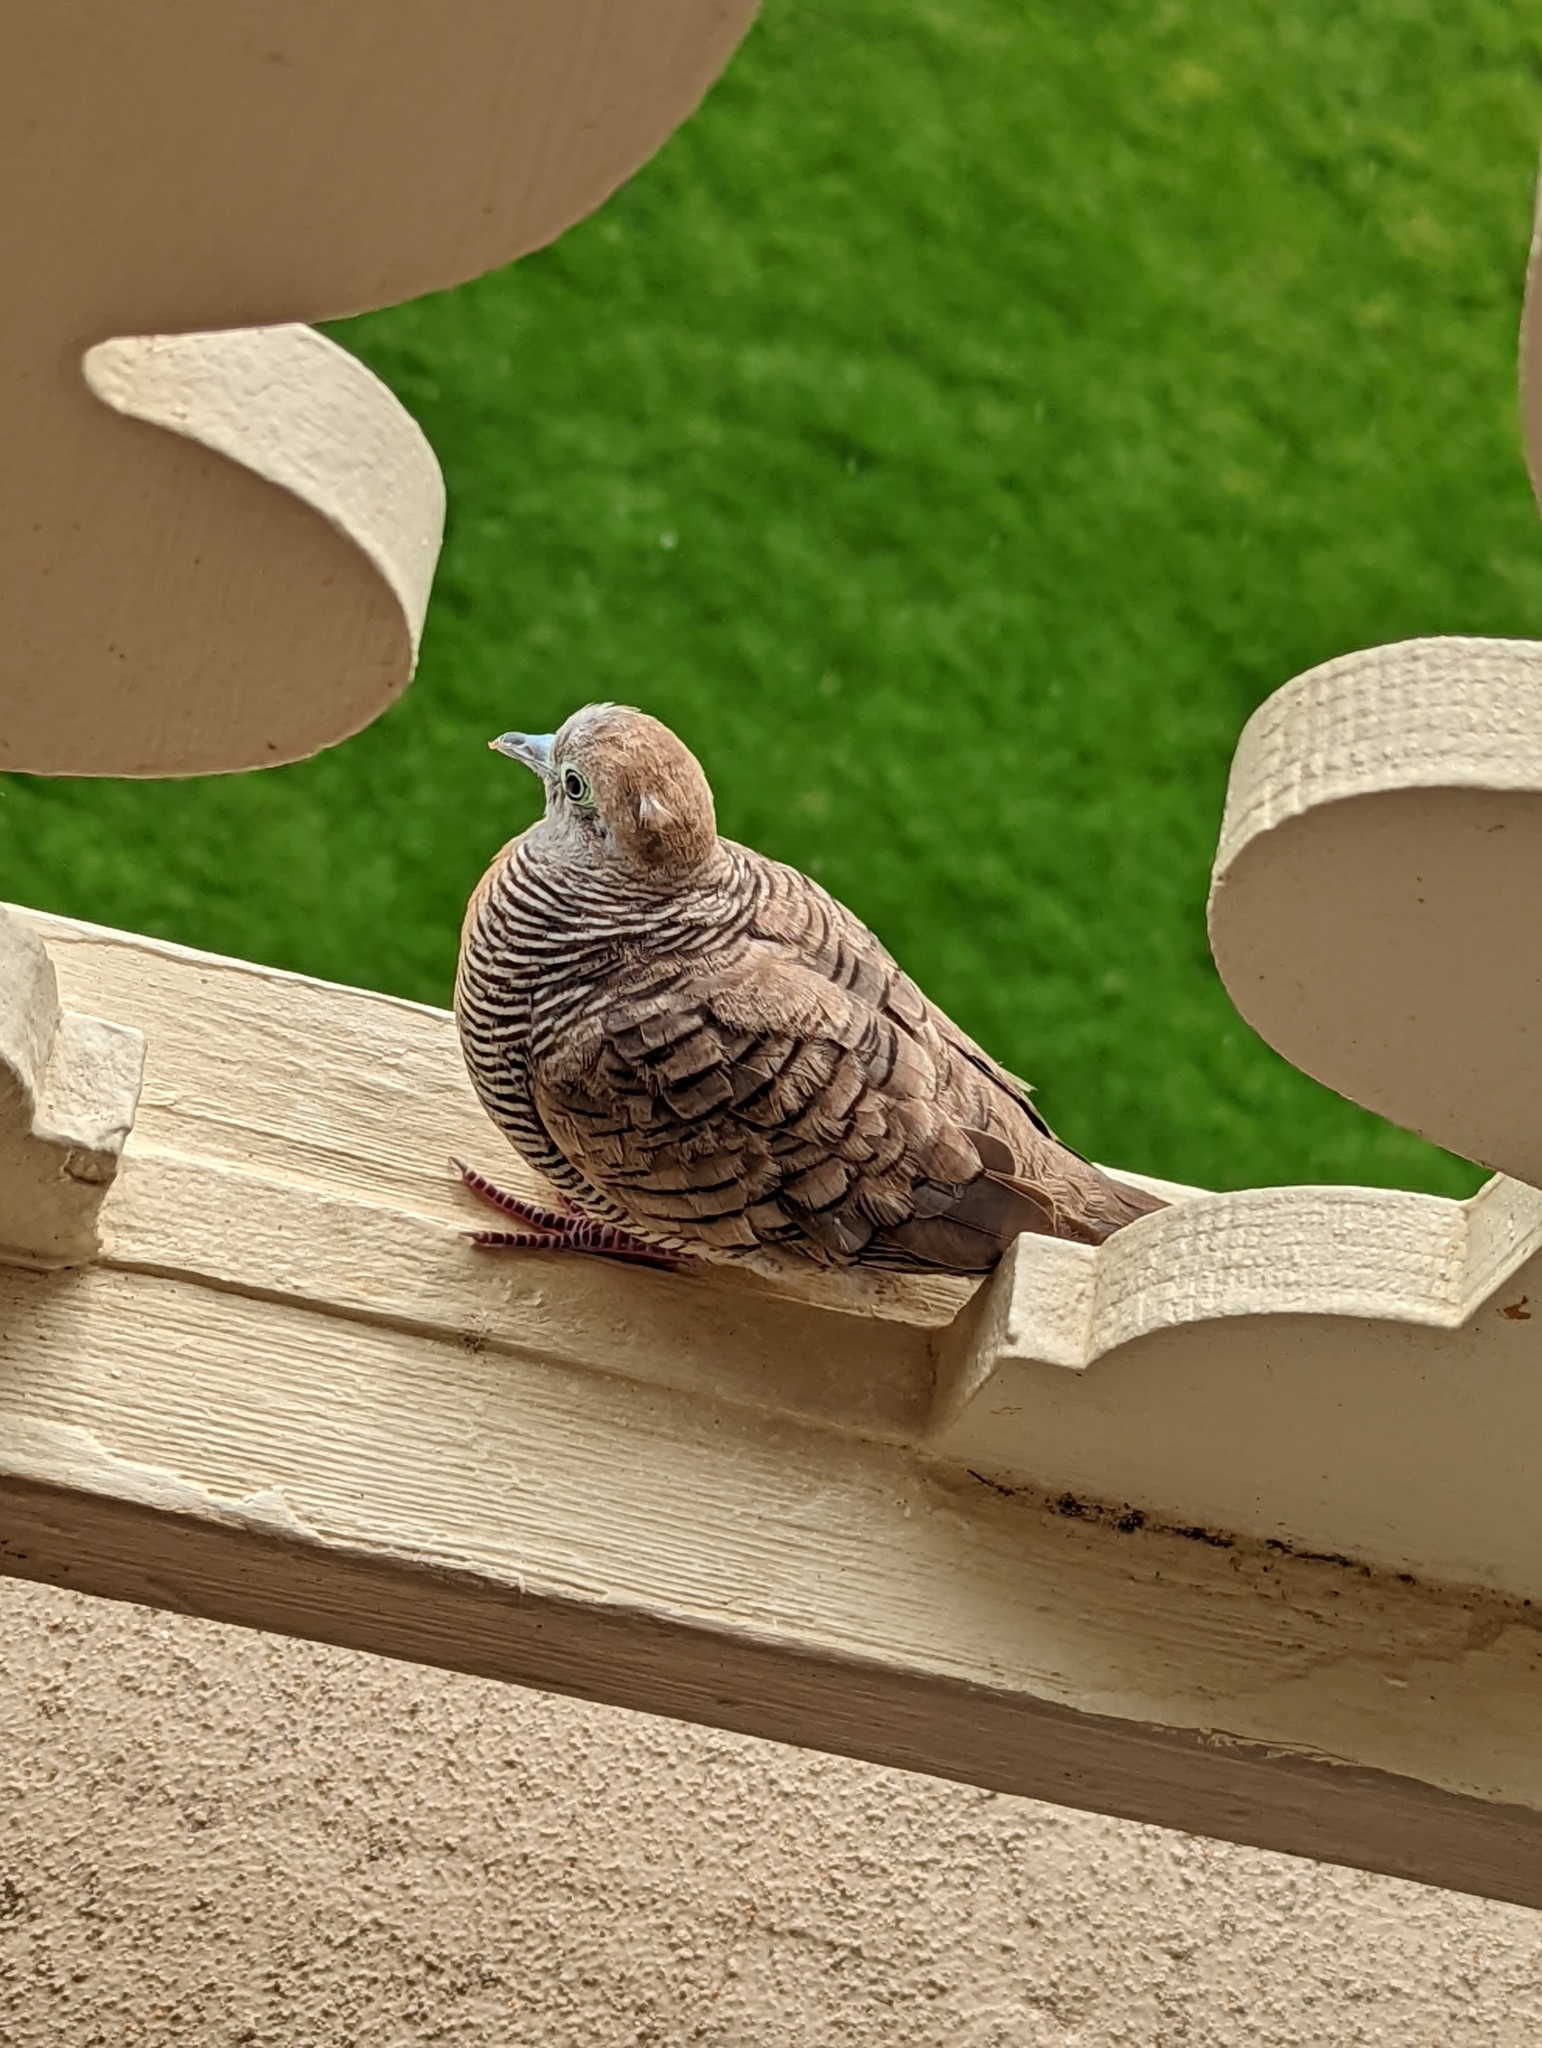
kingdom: Animalia
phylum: Chordata
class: Aves
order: Columbiformes
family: Columbidae
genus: Geopelia
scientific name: Geopelia striata
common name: Zebra dove
